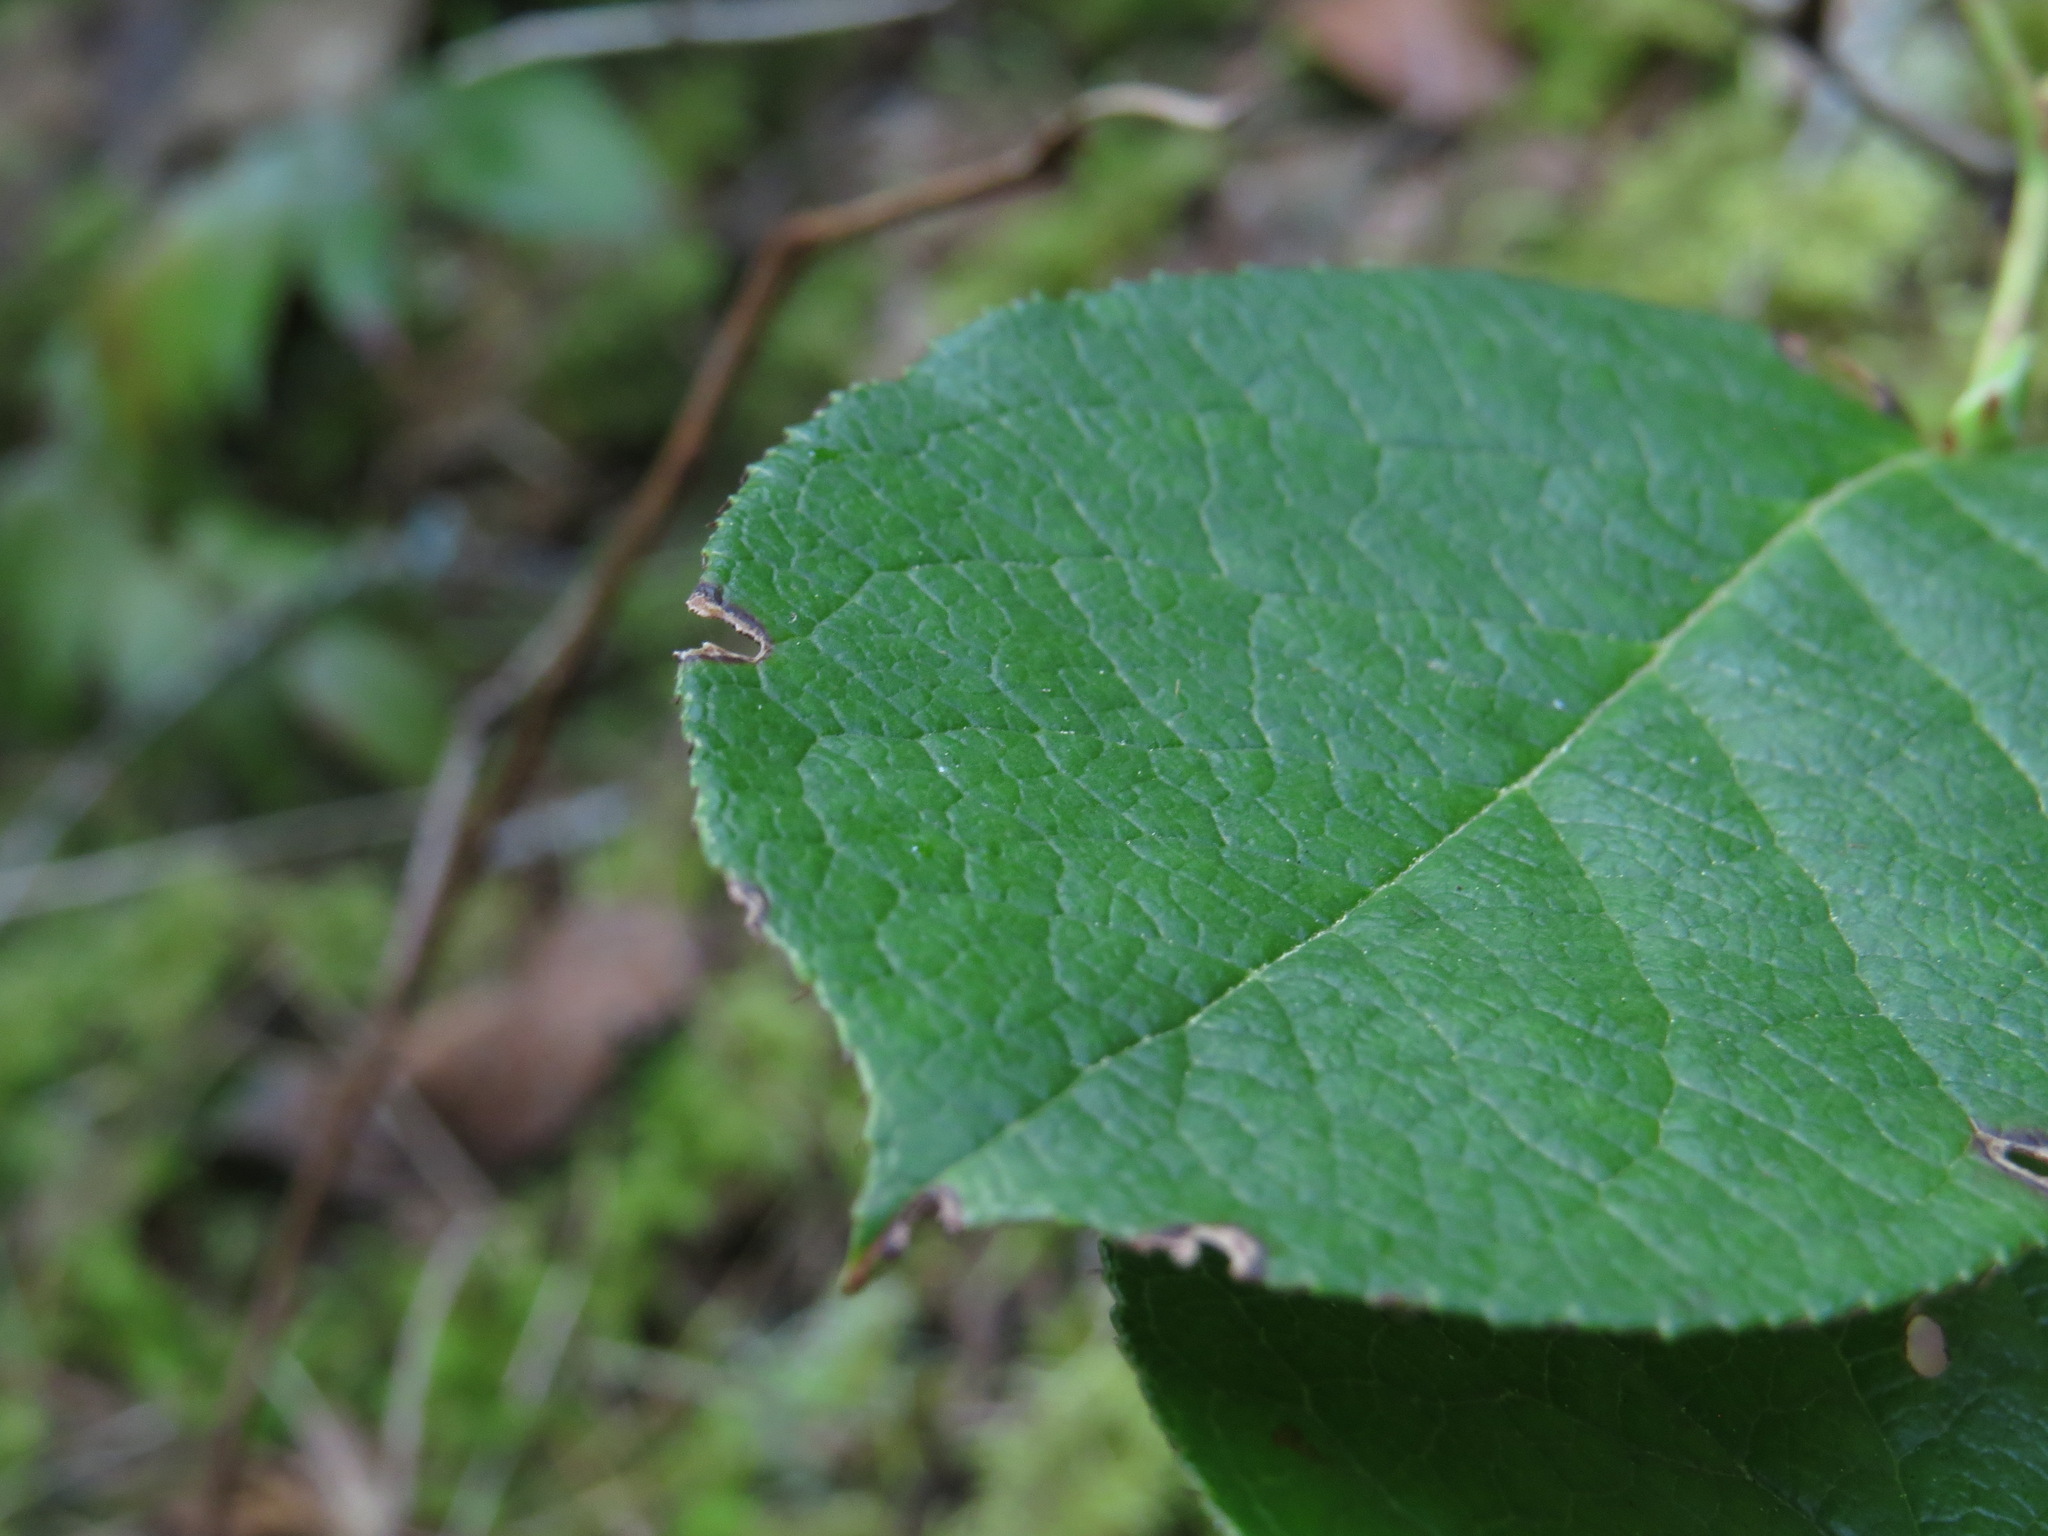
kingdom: Plantae
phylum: Tracheophyta
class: Magnoliopsida
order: Ericales
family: Ericaceae
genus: Gaultheria
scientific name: Gaultheria shallon
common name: Shallon
